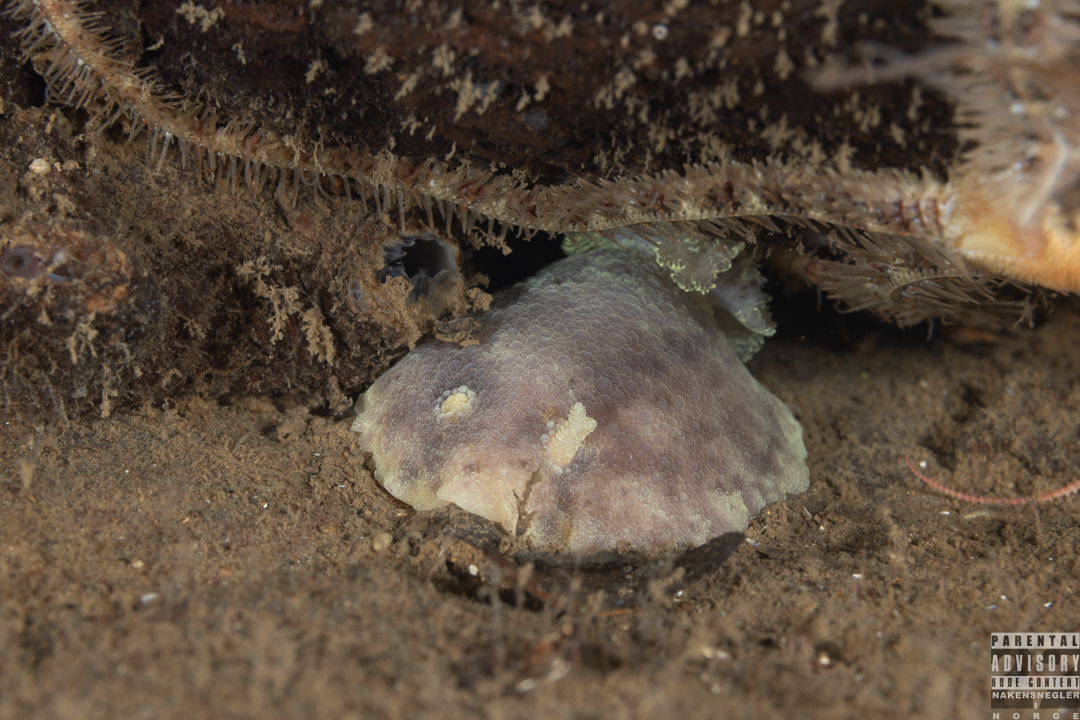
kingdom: Animalia
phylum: Mollusca
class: Gastropoda
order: Nudibranchia
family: Dorididae
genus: Doris
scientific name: Doris pseudoargus
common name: Sea lemon
